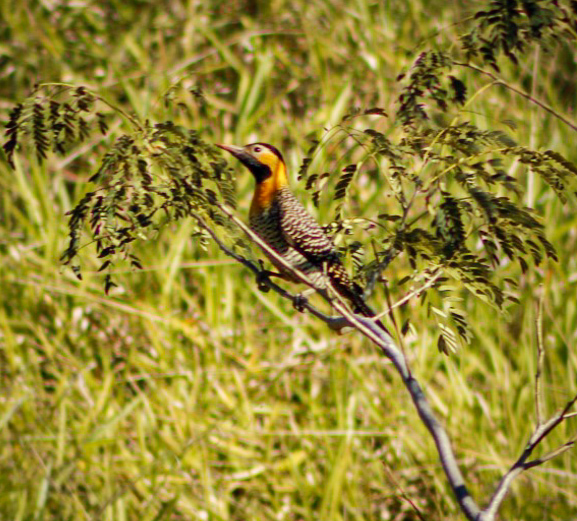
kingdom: Animalia
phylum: Chordata
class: Aves
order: Piciformes
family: Picidae
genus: Colaptes
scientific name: Colaptes campestris
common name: Campo flicker
